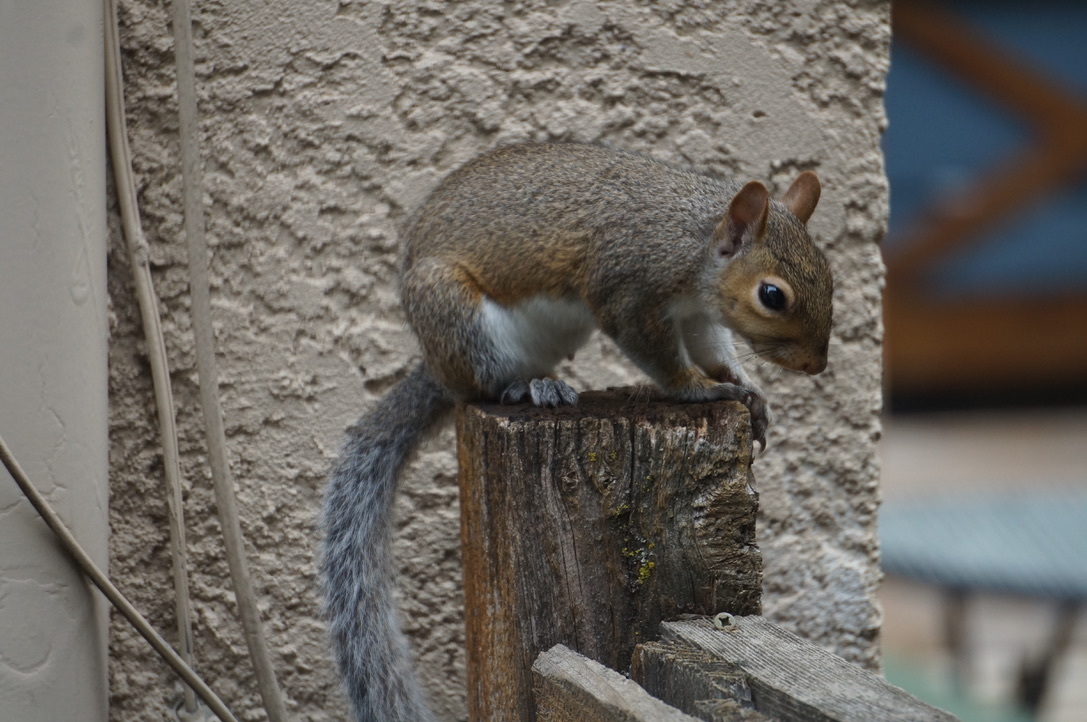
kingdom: Animalia
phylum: Chordata
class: Mammalia
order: Rodentia
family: Sciuridae
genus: Sciurus
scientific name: Sciurus carolinensis
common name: Eastern gray squirrel
